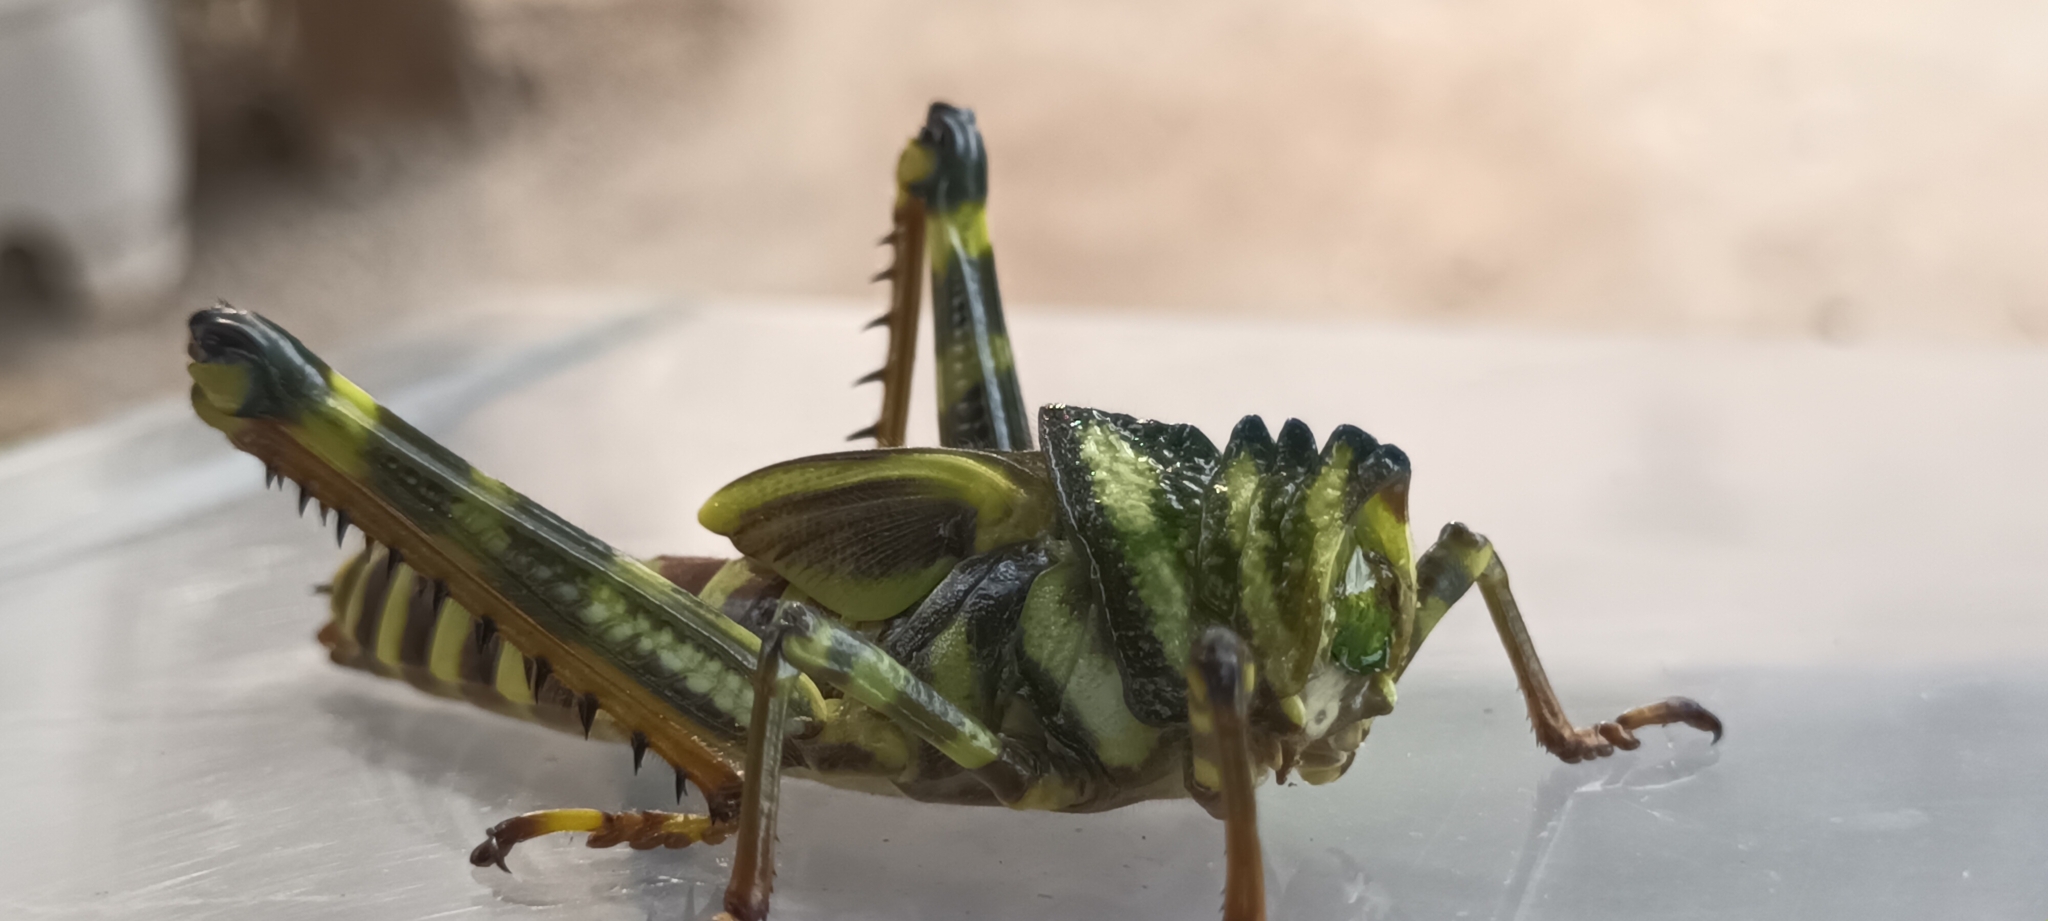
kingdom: Animalia
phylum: Arthropoda
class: Insecta
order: Orthoptera
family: Romaleidae
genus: Tropidacris
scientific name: Tropidacris cristata
